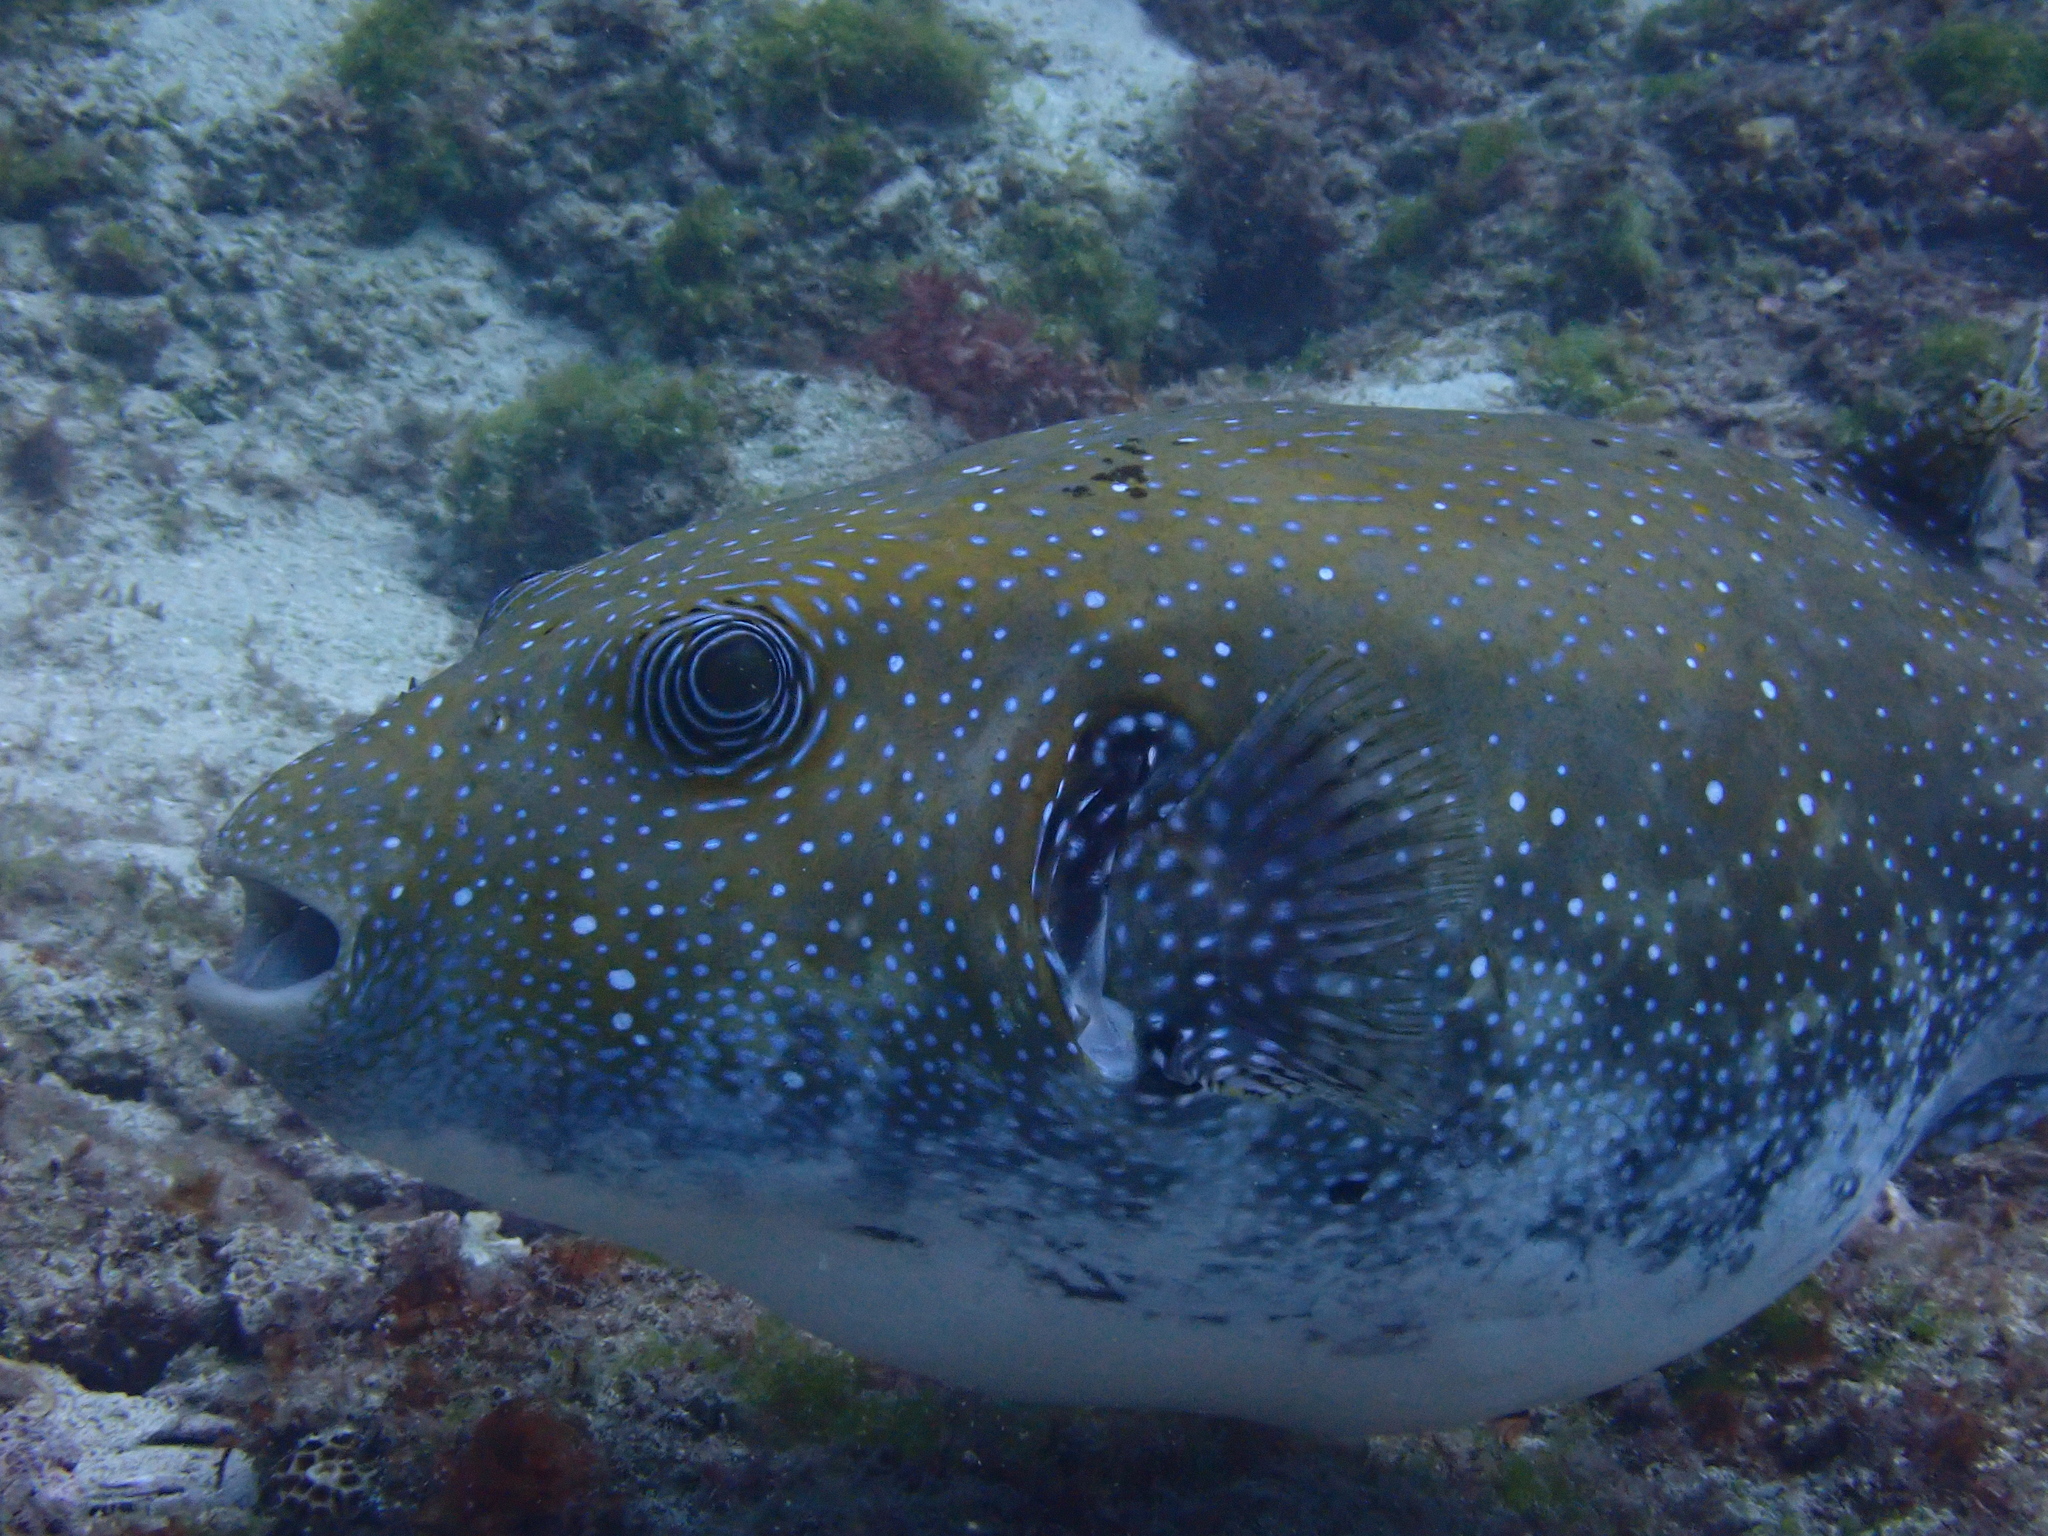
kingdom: Animalia
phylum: Chordata
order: Tetraodontiformes
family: Tetraodontidae
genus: Arothron
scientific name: Arothron caeruleopunctatus
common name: Blue-spotted puffer
